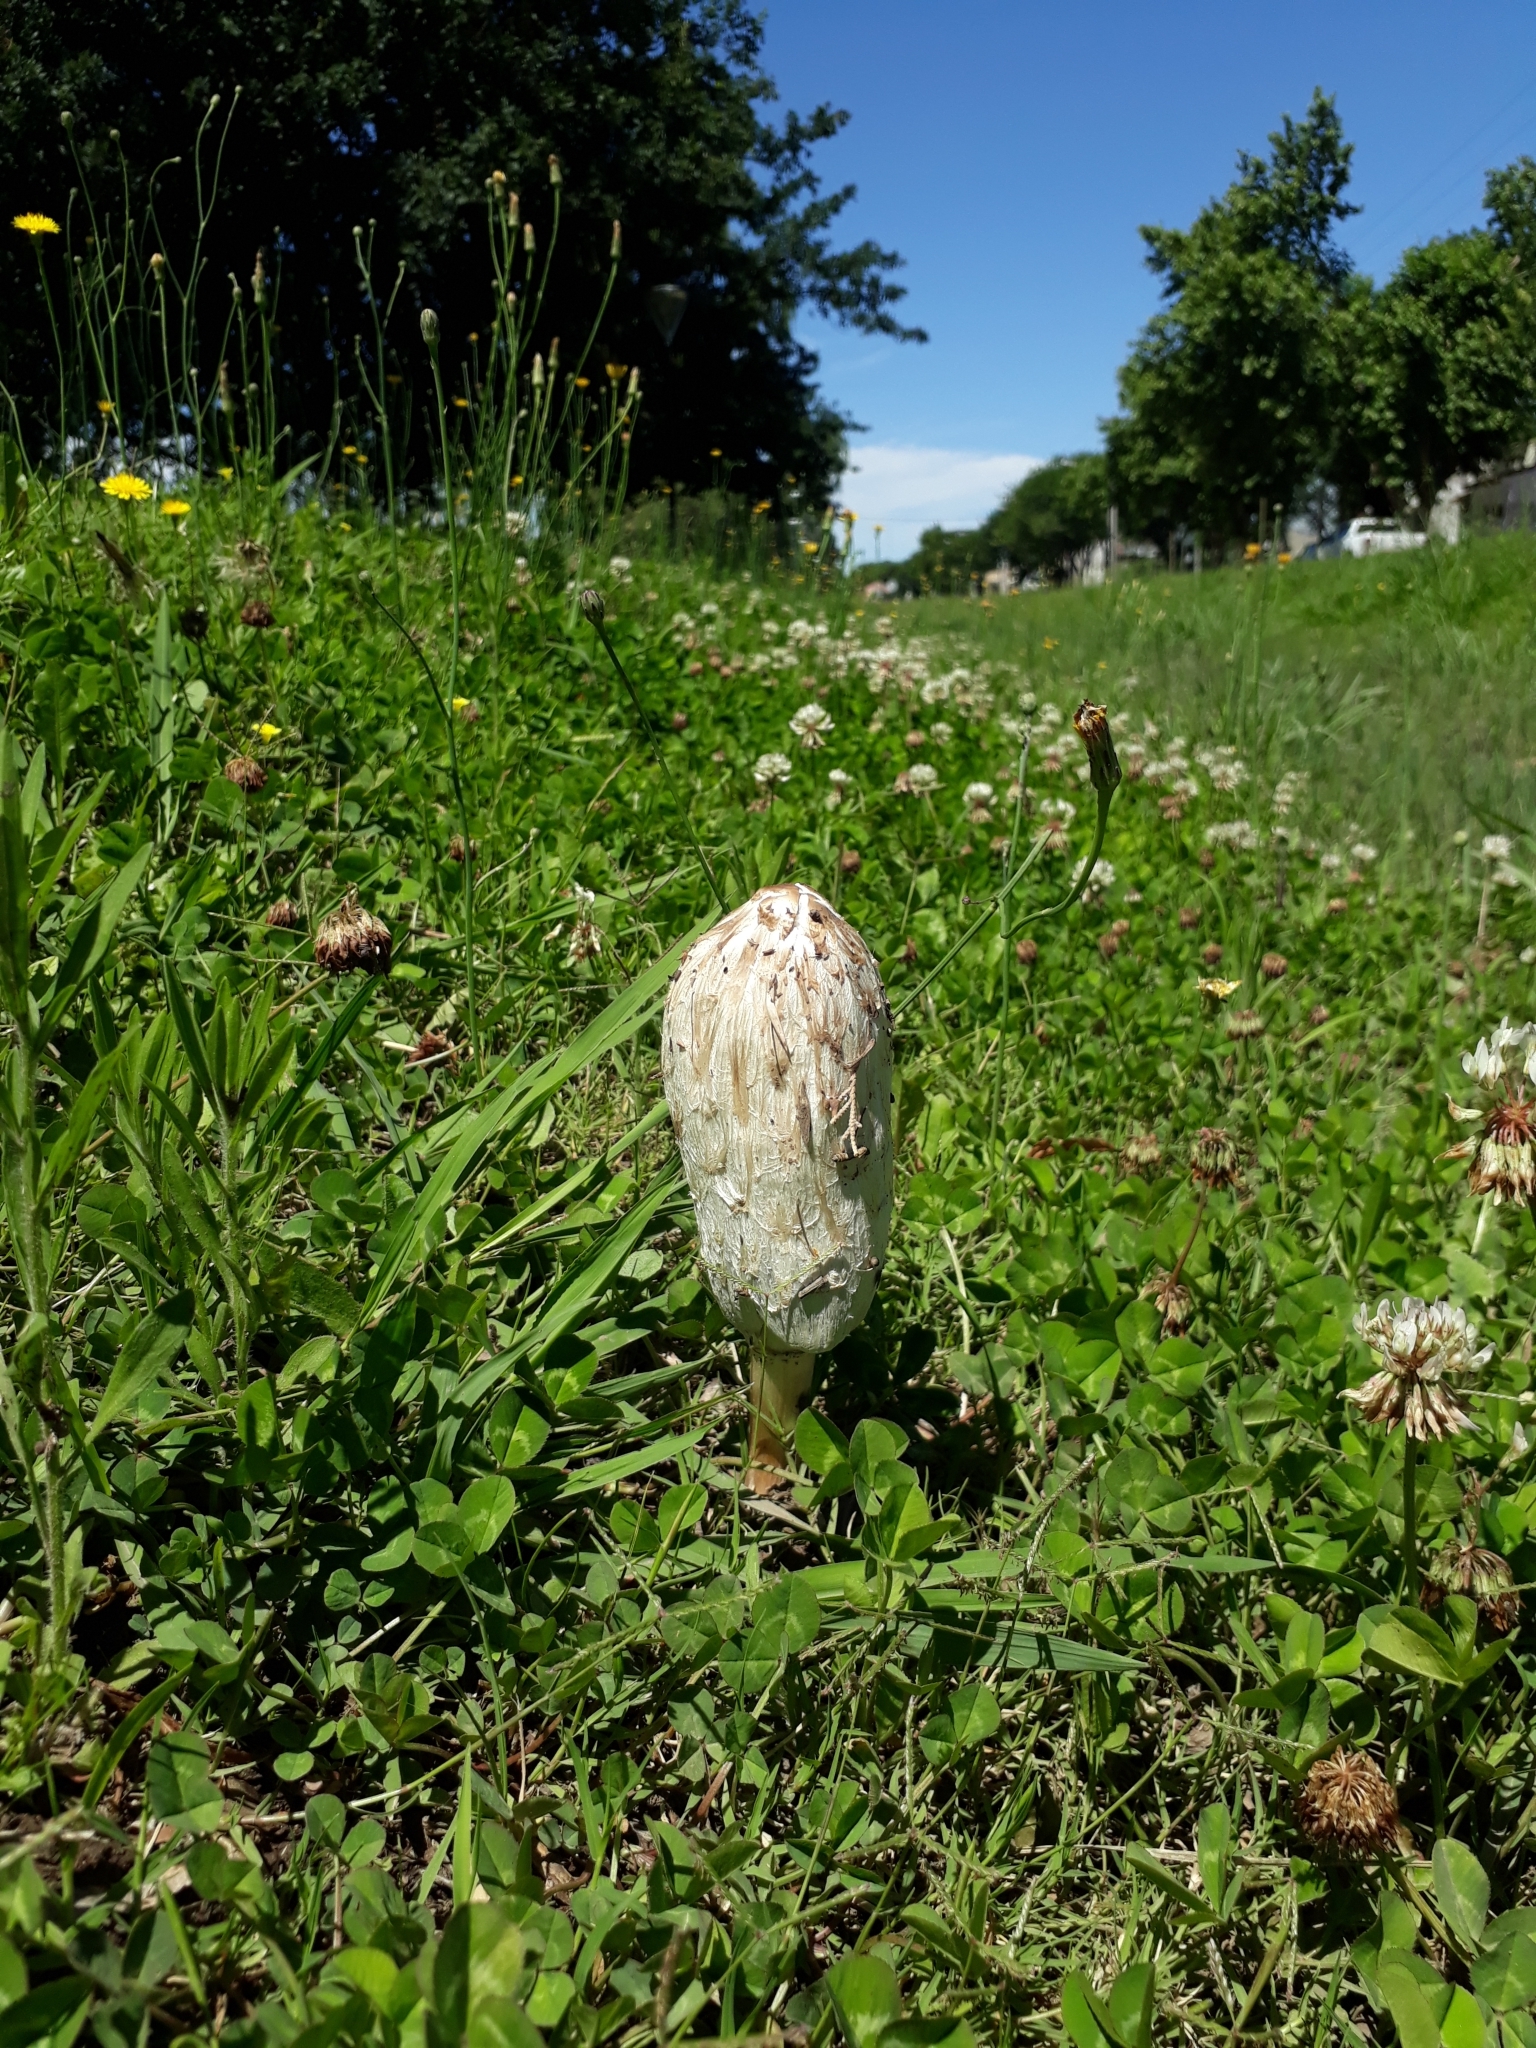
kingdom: Fungi
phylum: Basidiomycota
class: Agaricomycetes
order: Agaricales
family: Agaricaceae
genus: Coprinus
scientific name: Coprinus comatus
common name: Lawyer's wig
